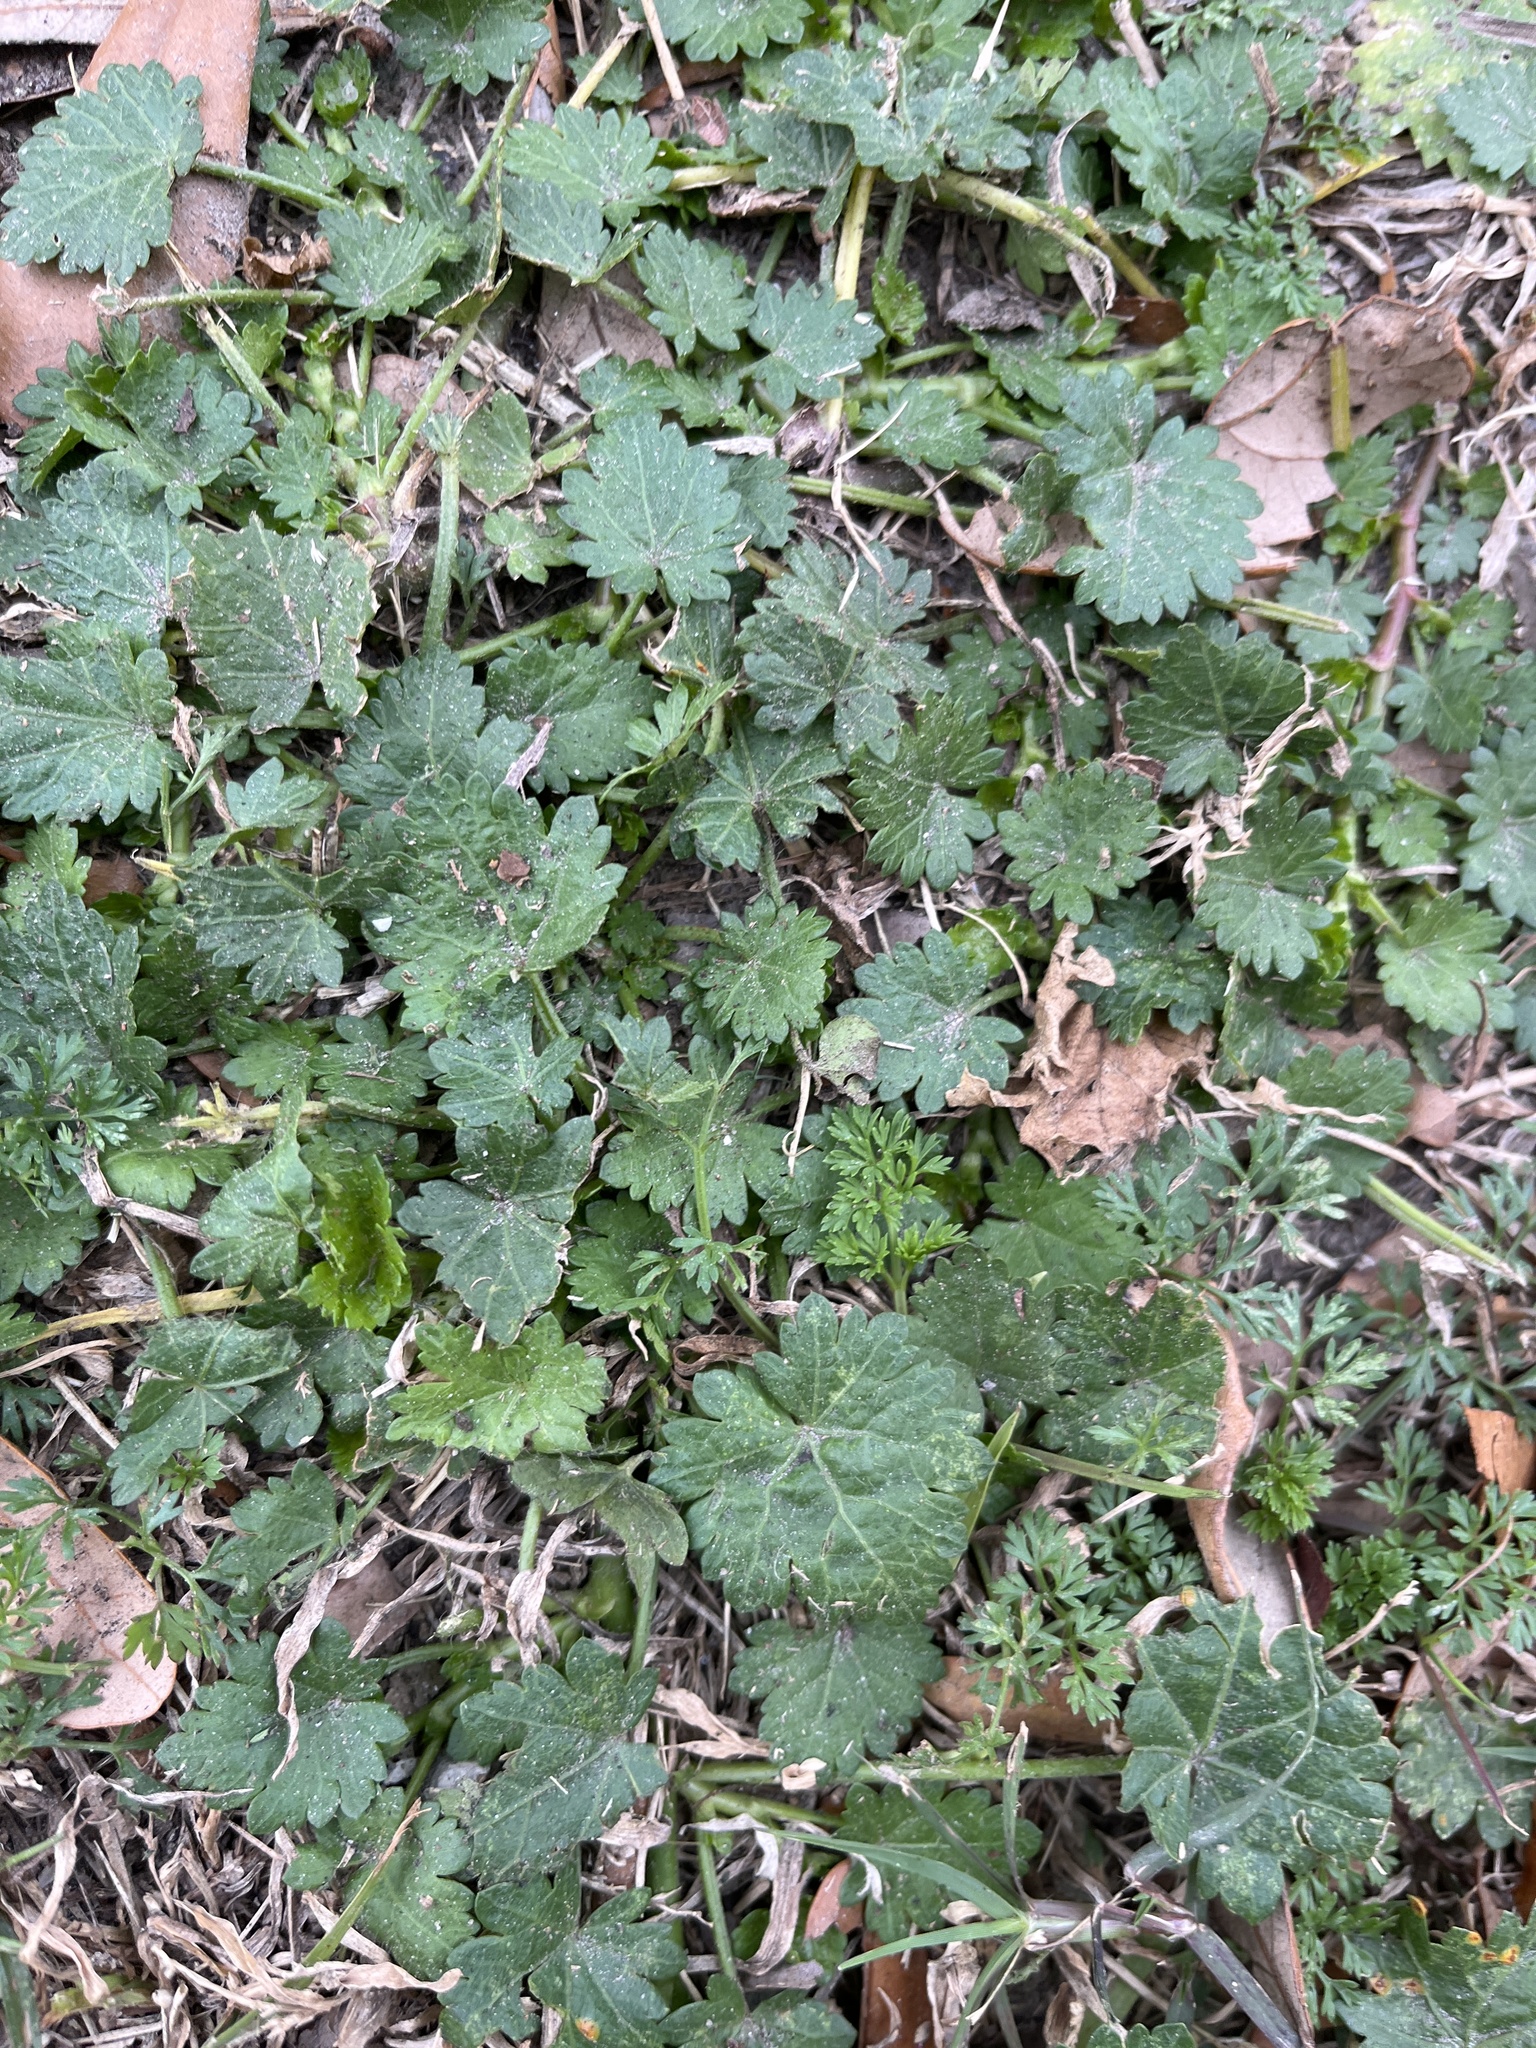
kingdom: Plantae
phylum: Tracheophyta
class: Magnoliopsida
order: Malvales
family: Malvaceae
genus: Modiola
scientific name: Modiola caroliniana
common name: Carolina bristlemallow
